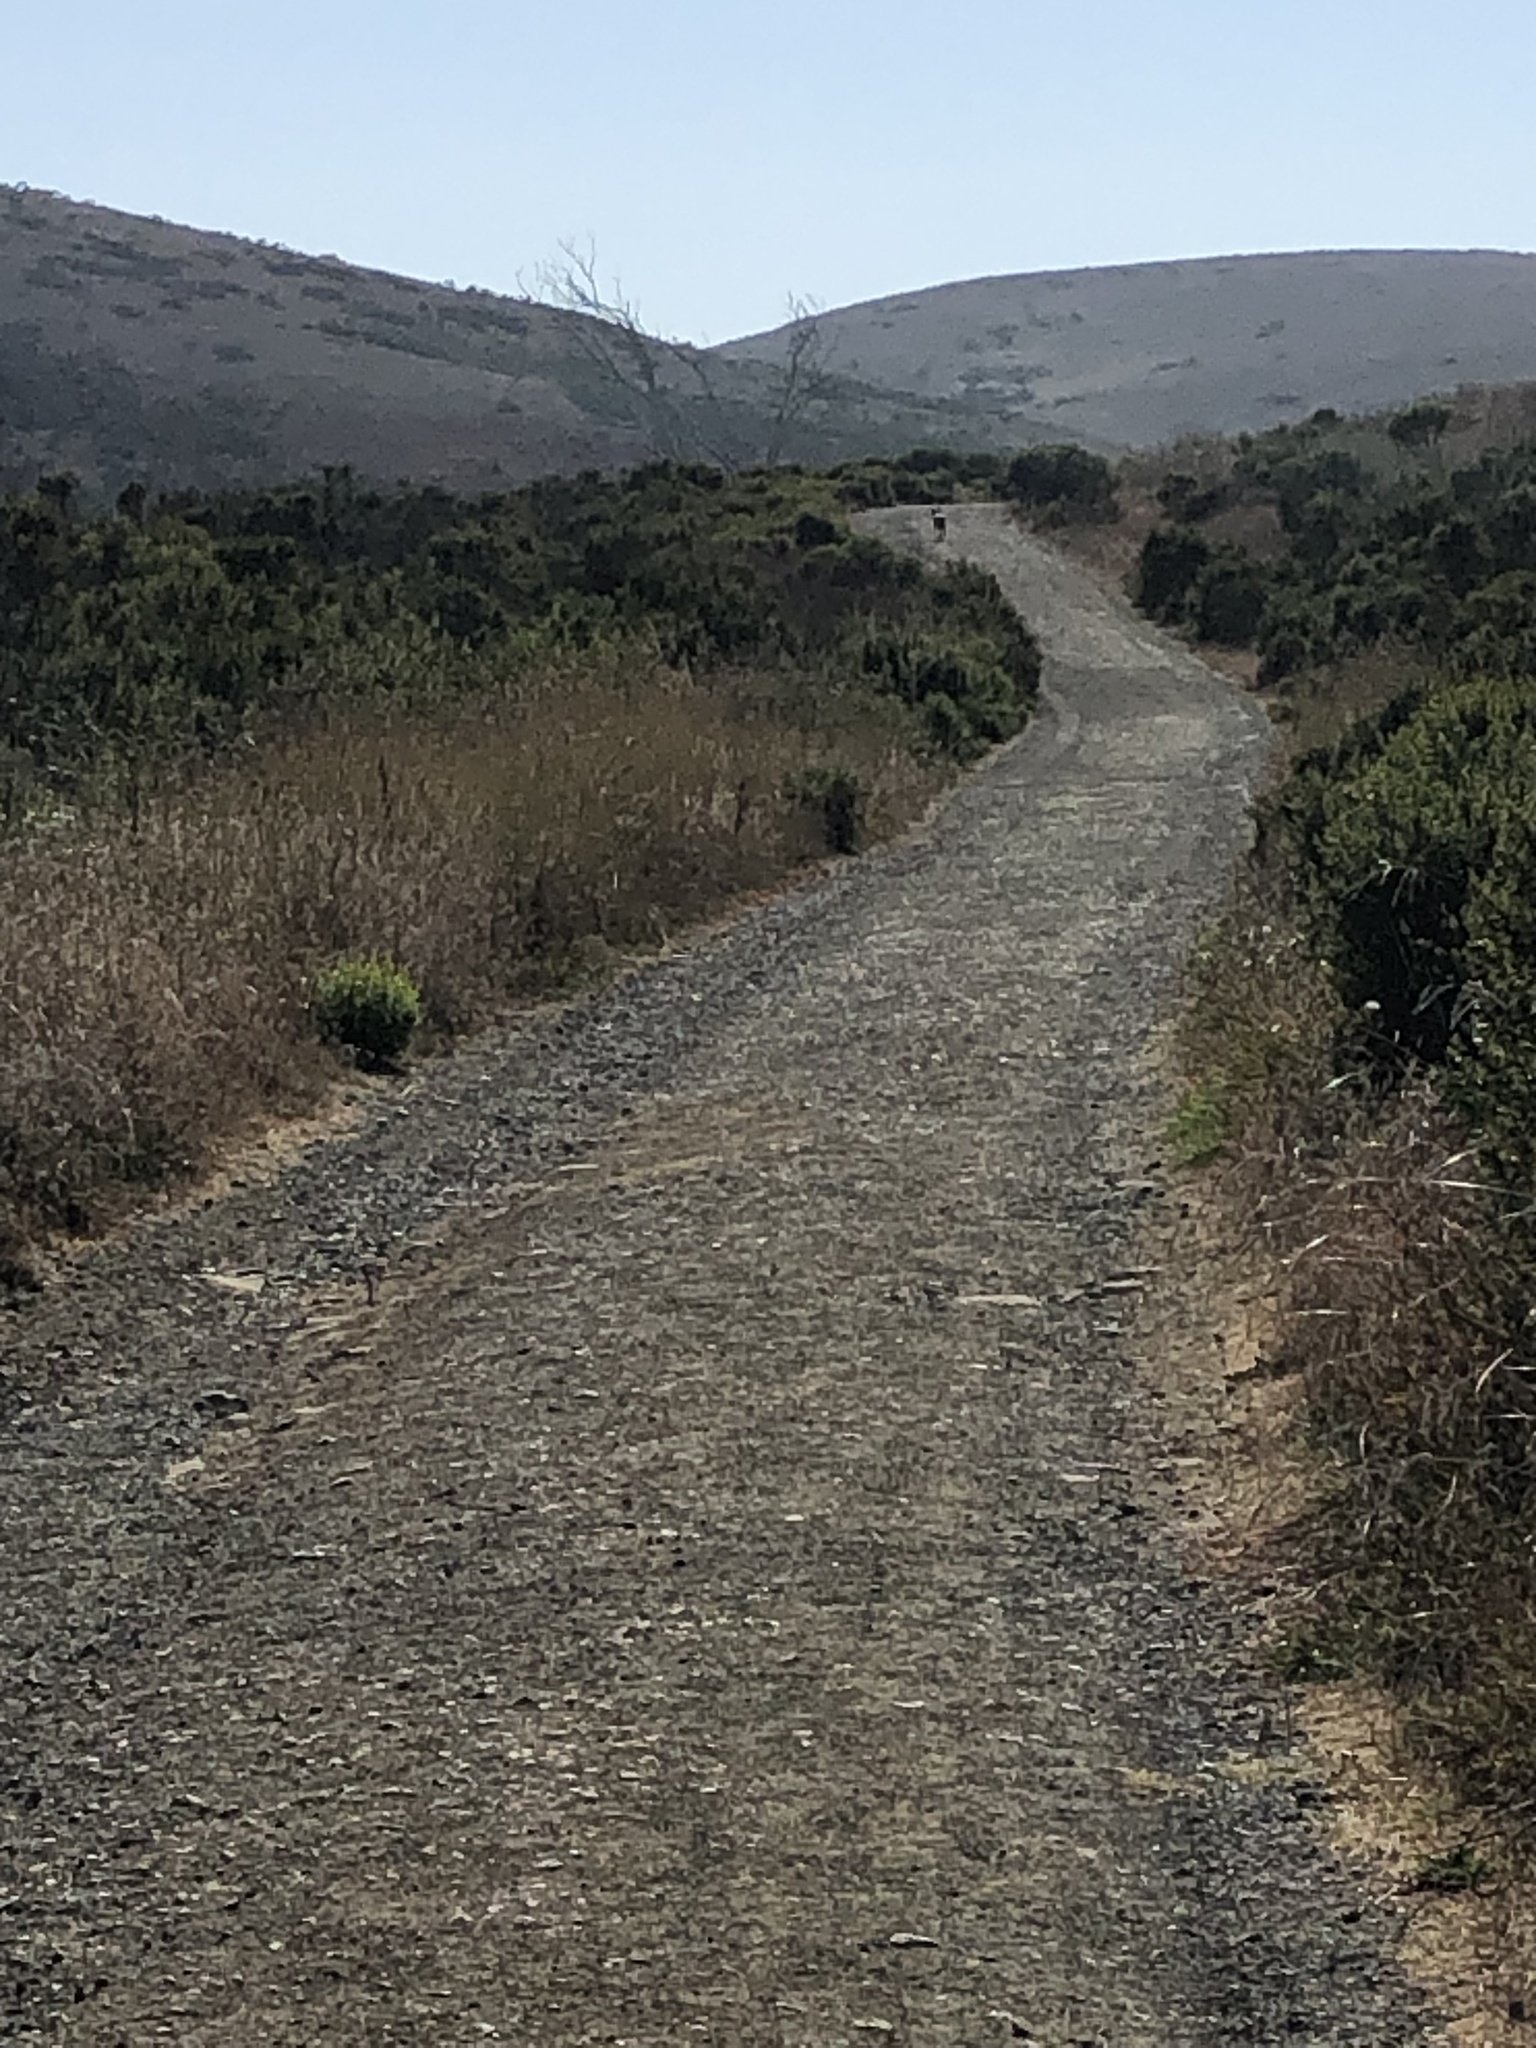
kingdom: Animalia
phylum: Chordata
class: Mammalia
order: Carnivora
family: Canidae
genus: Canis
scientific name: Canis latrans
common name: Coyote
